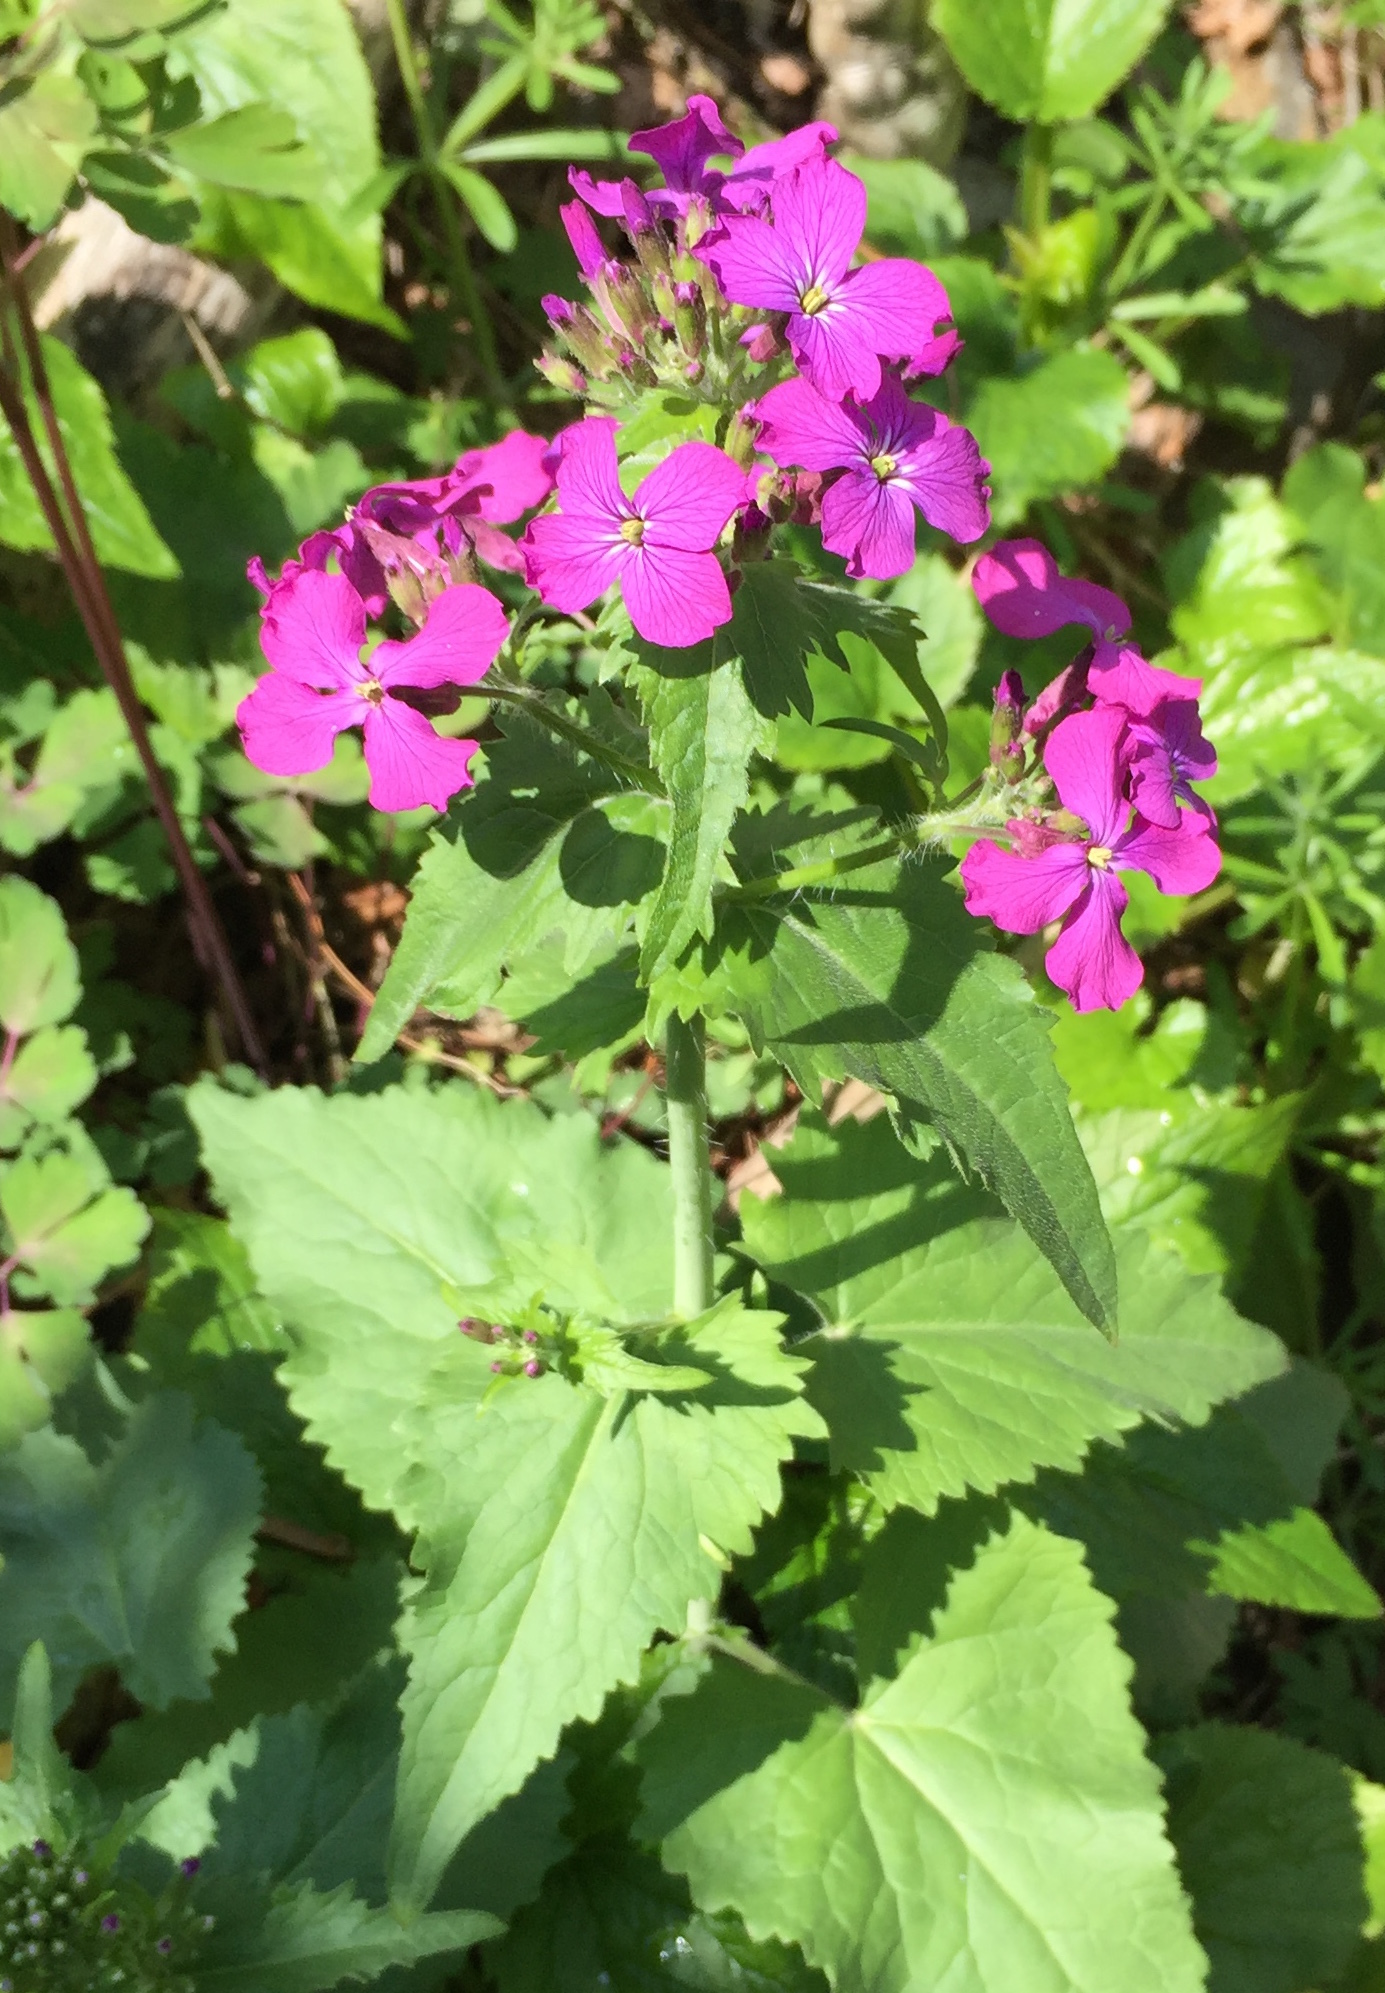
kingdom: Plantae
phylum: Tracheophyta
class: Magnoliopsida
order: Brassicales
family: Brassicaceae
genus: Lunaria
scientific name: Lunaria annua
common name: Honesty
